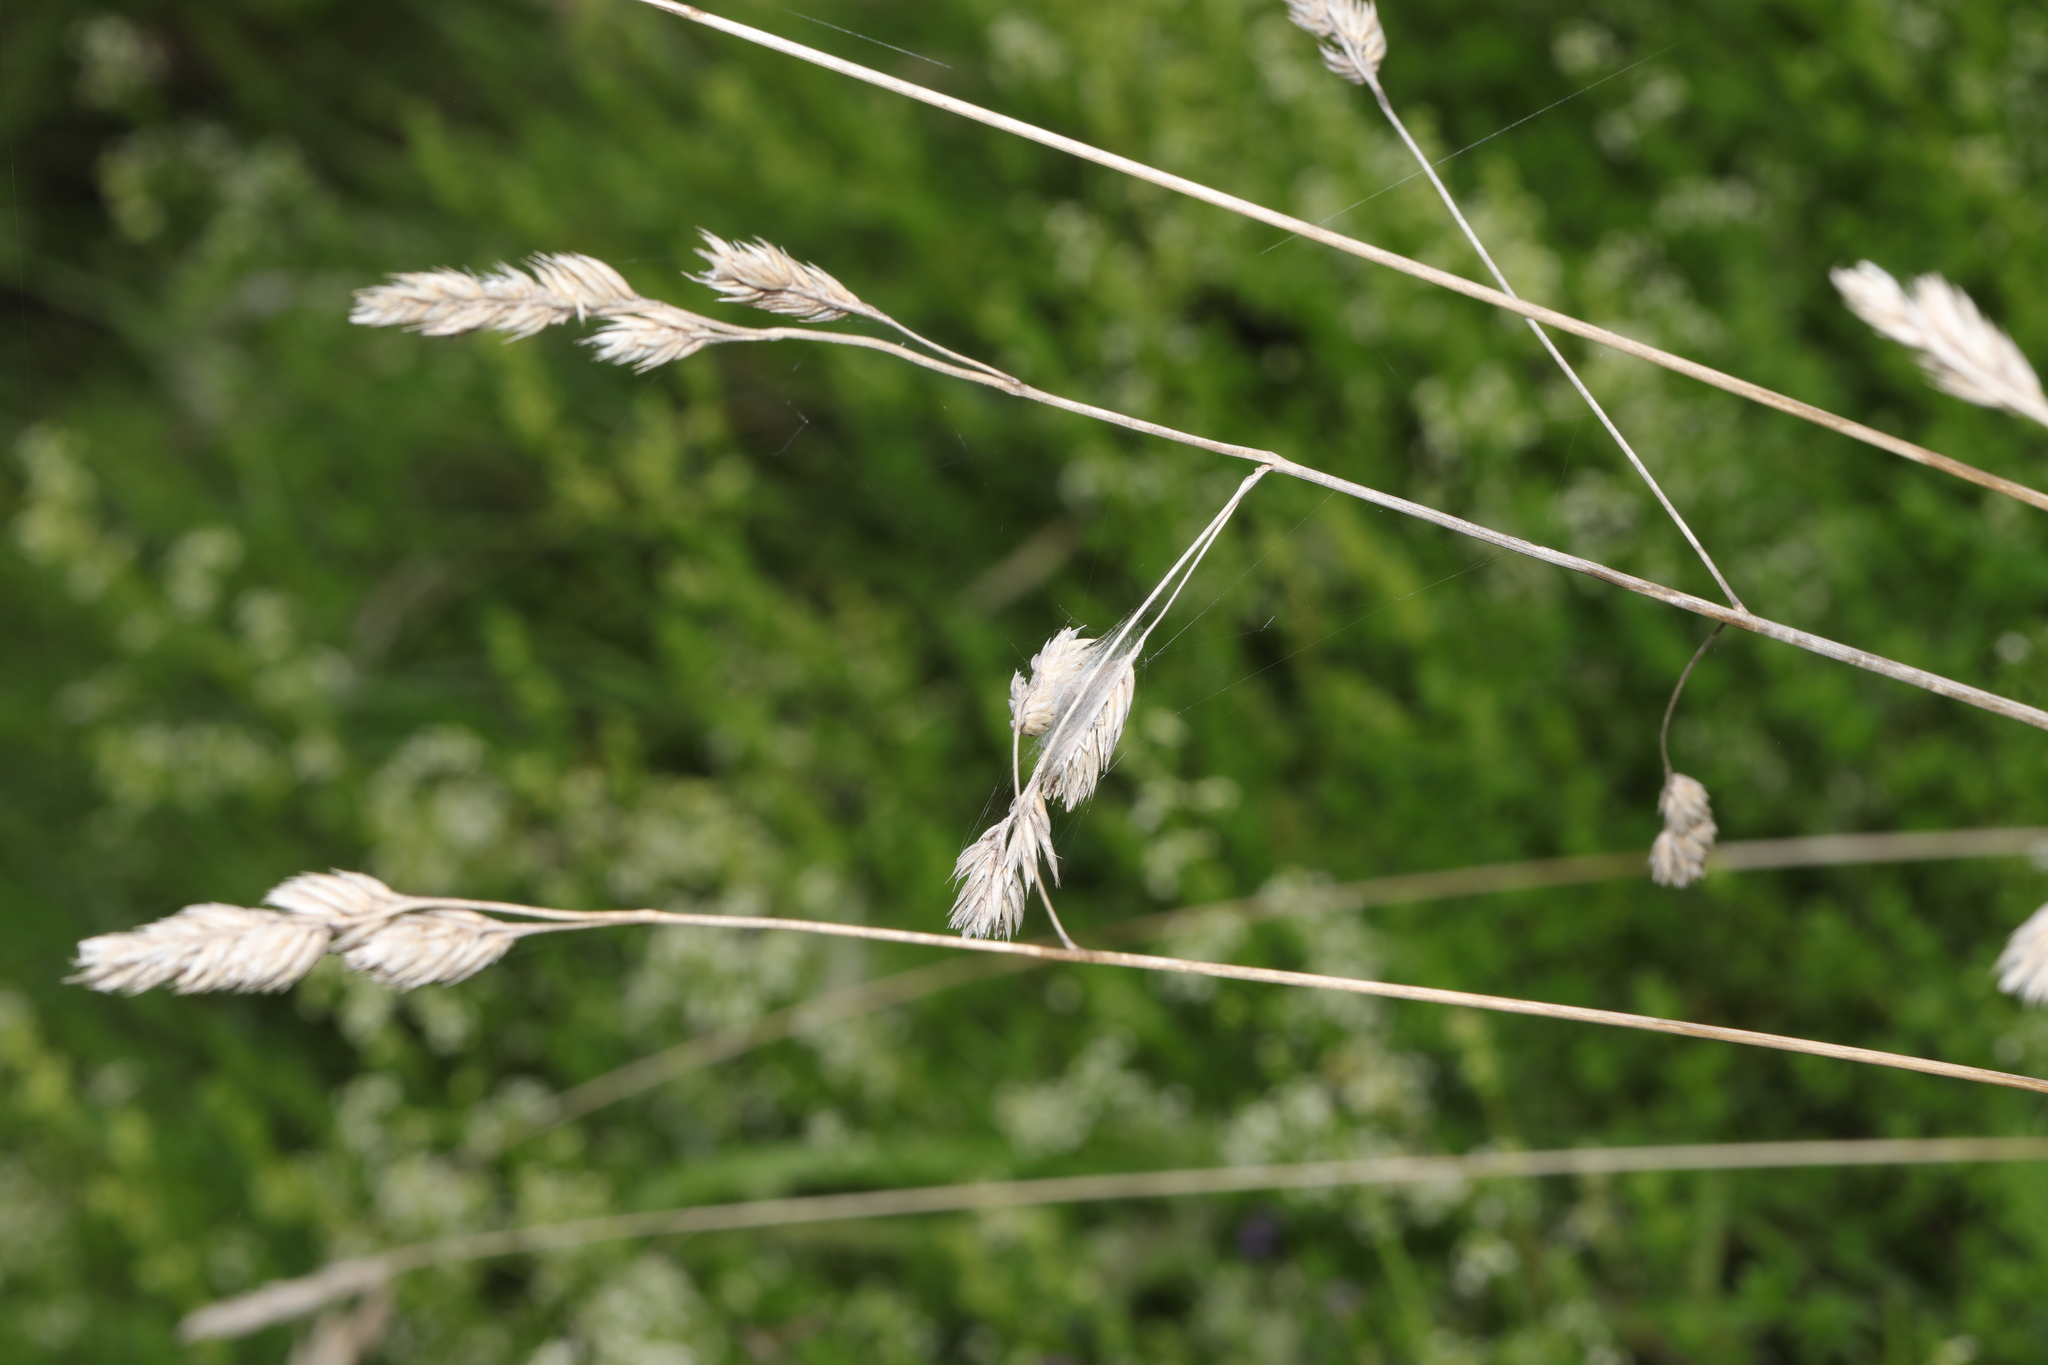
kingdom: Plantae
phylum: Tracheophyta
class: Liliopsida
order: Poales
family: Poaceae
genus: Dactylis
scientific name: Dactylis glomerata
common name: Orchardgrass
